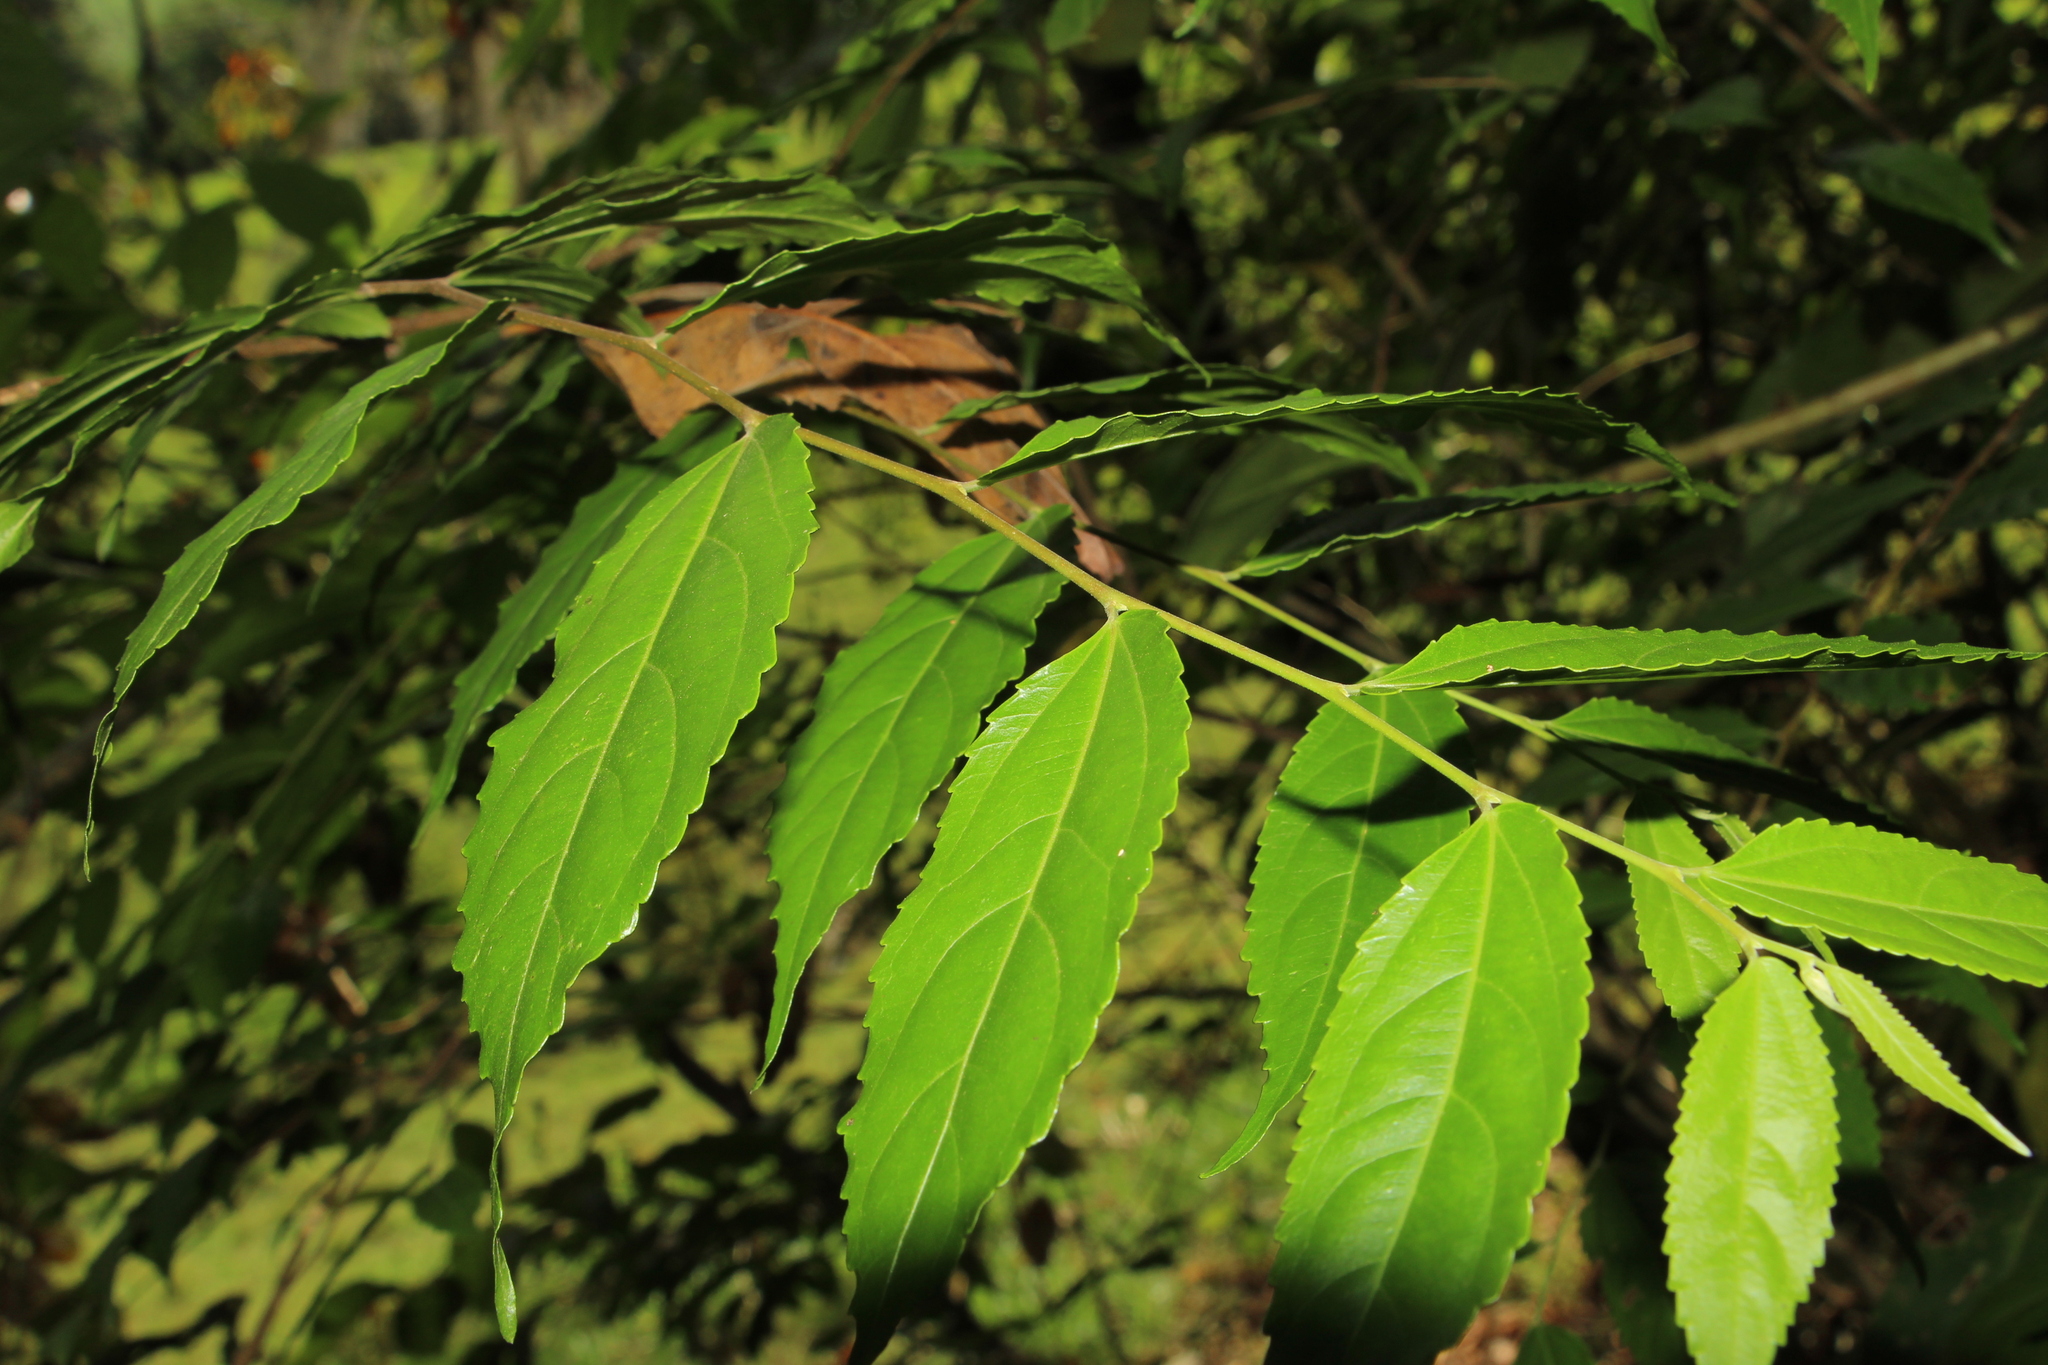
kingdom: Plantae
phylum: Tracheophyta
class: Magnoliopsida
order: Malpighiales
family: Salicaceae
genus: Banara
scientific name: Banara glauca
